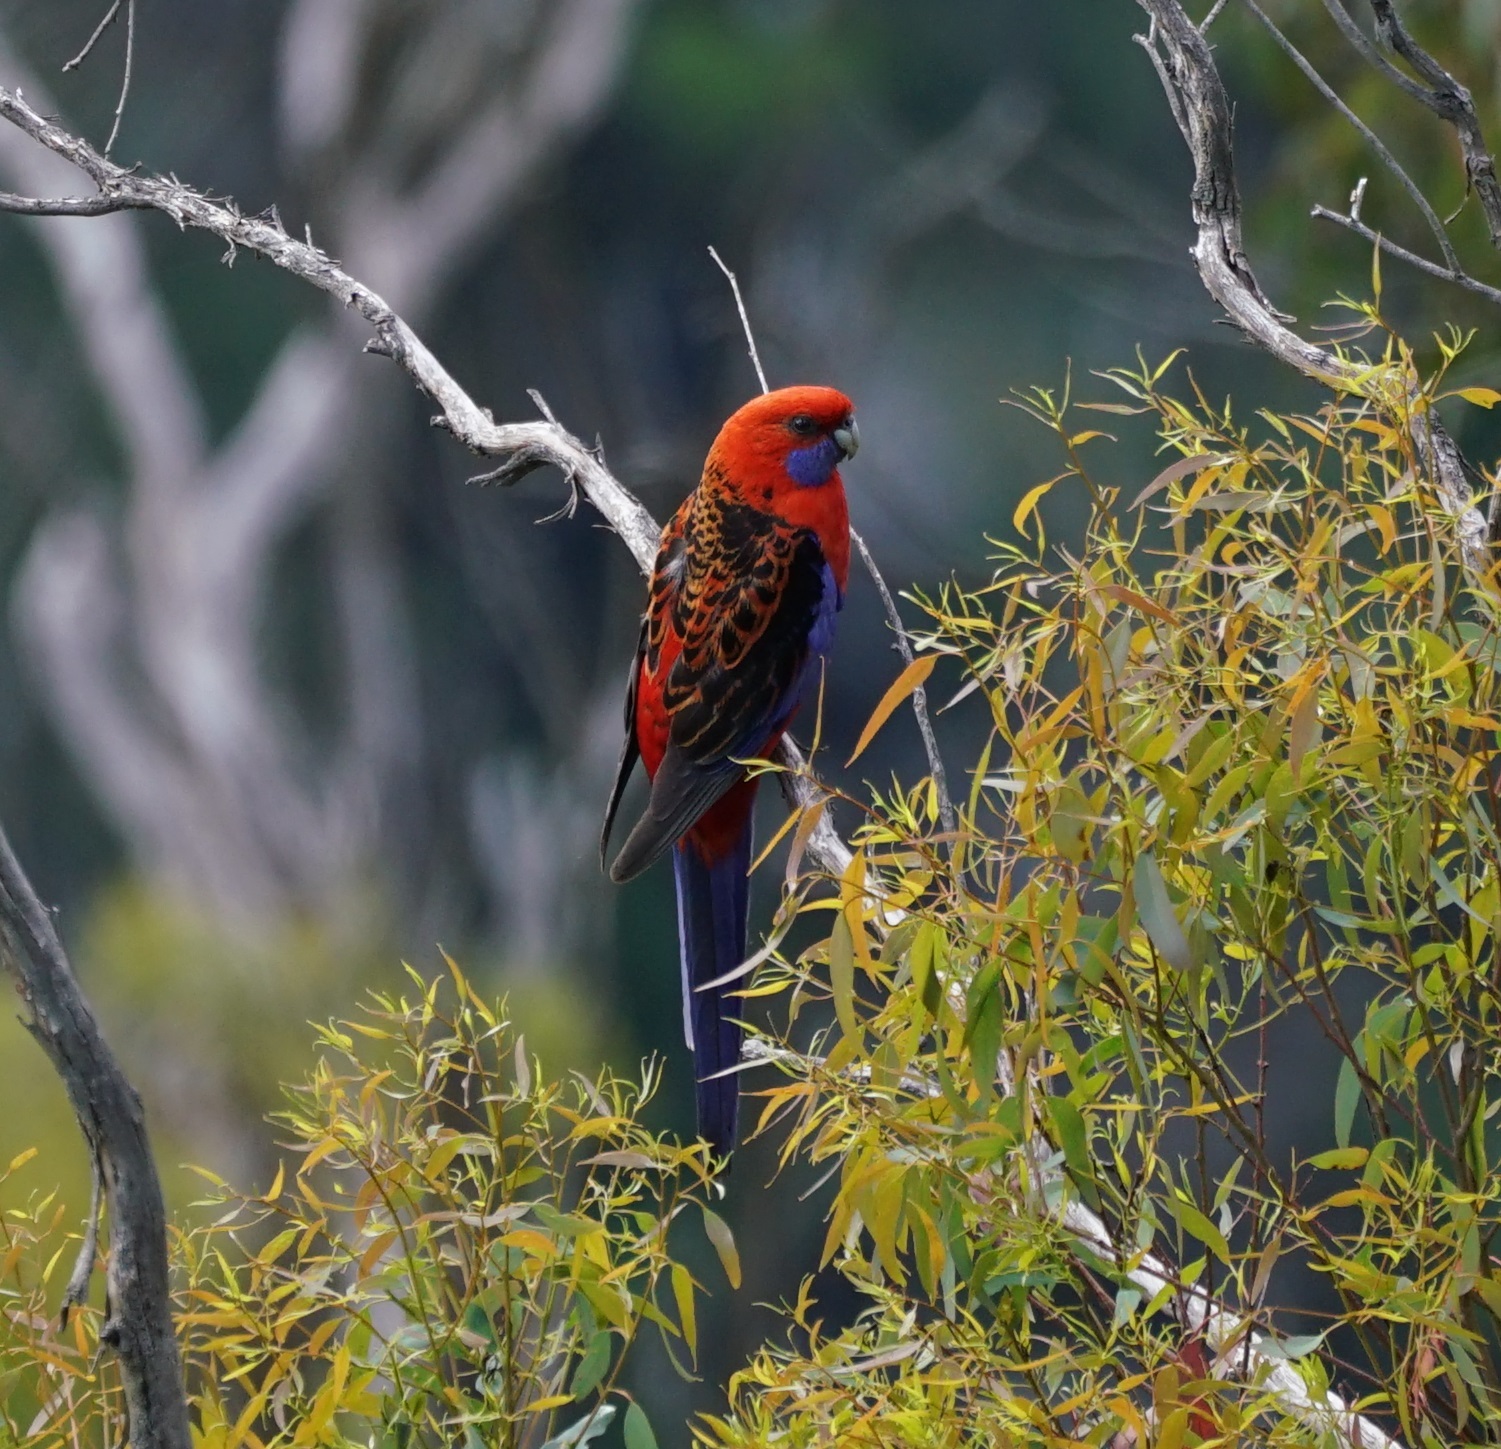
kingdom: Animalia
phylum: Chordata
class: Aves
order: Psittaciformes
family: Psittacidae
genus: Platycercus
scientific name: Platycercus elegans
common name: Crimson rosella
